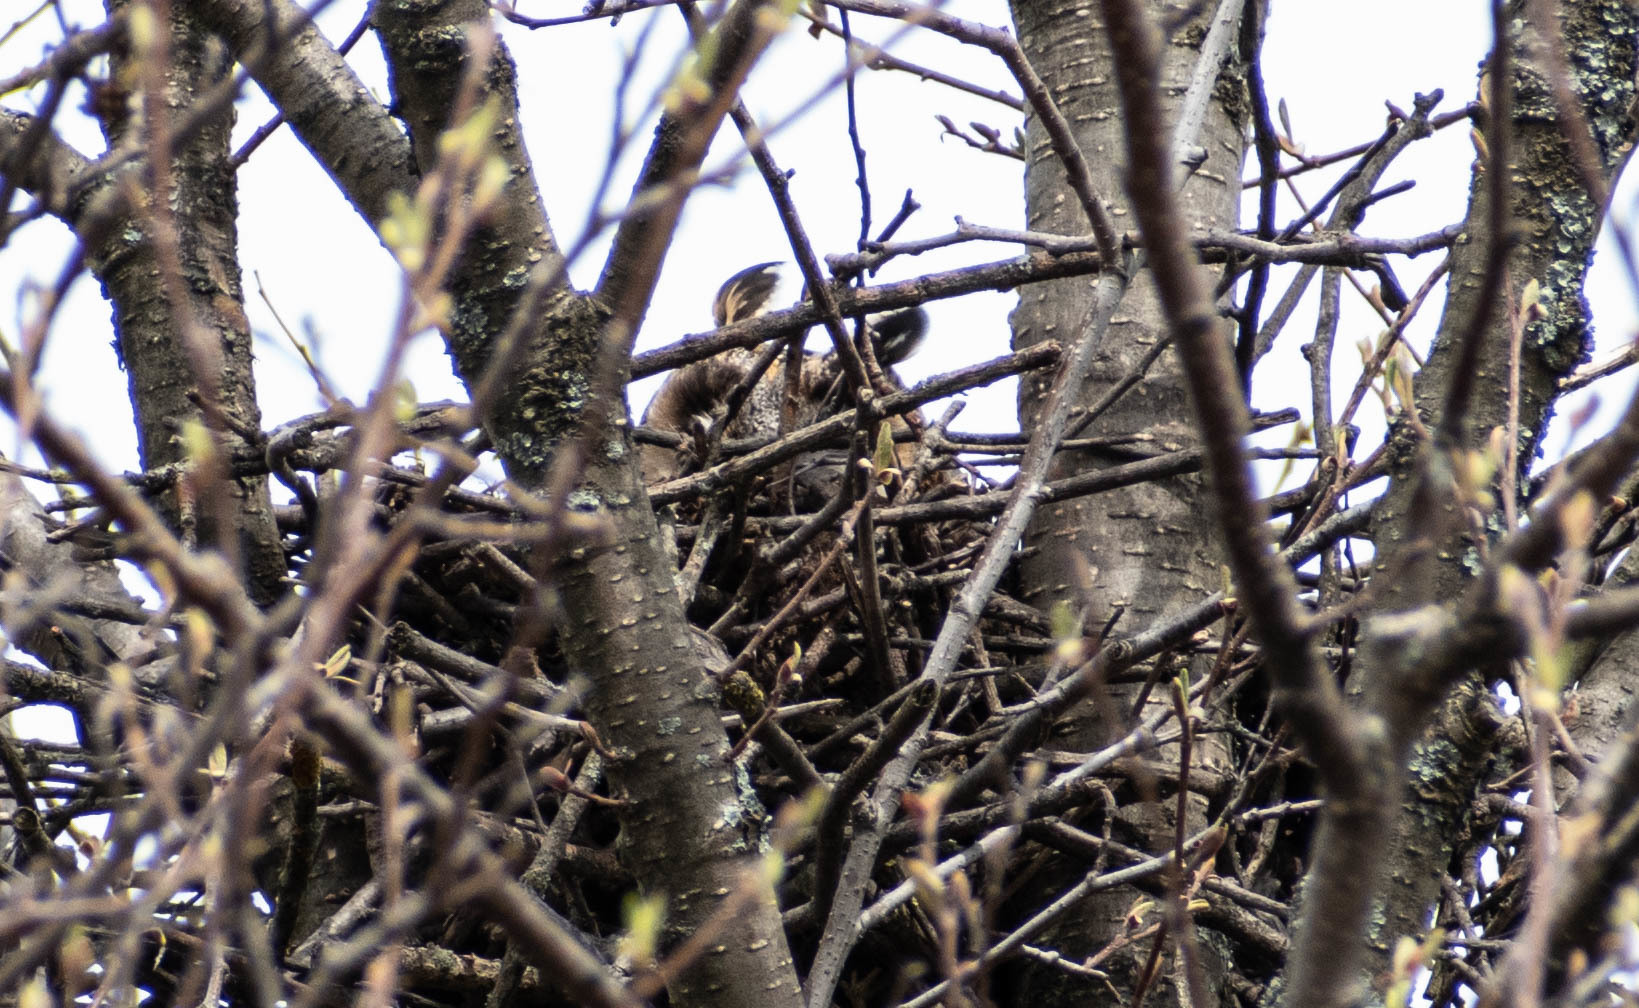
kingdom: Animalia
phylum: Chordata
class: Aves
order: Strigiformes
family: Strigidae
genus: Asio
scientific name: Asio otus
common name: Long-eared owl
